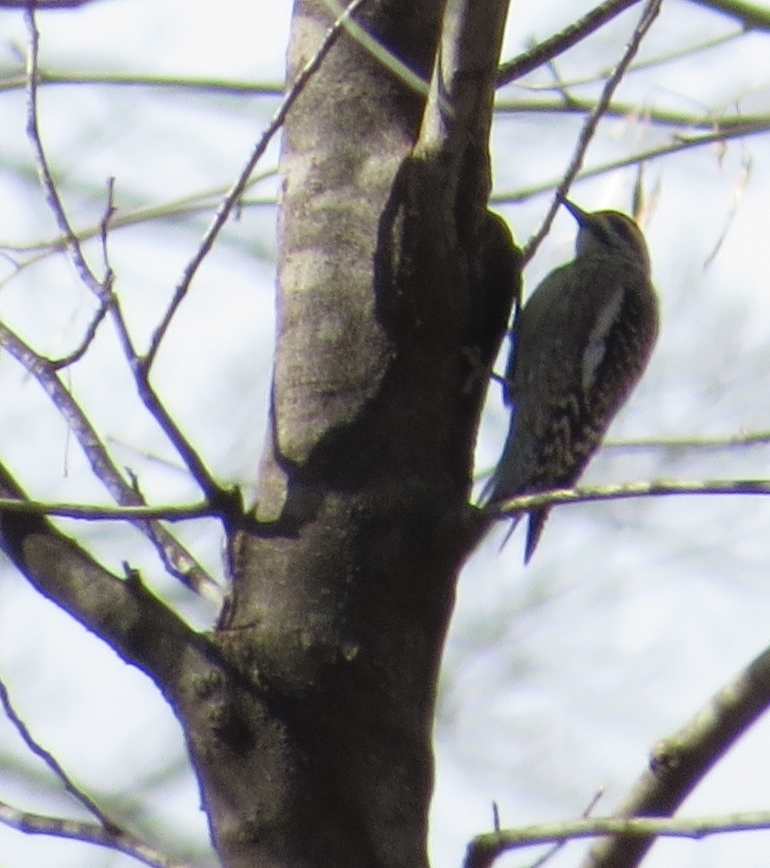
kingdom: Animalia
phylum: Chordata
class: Aves
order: Piciformes
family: Picidae
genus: Sphyrapicus
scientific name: Sphyrapicus varius
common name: Yellow-bellied sapsucker
